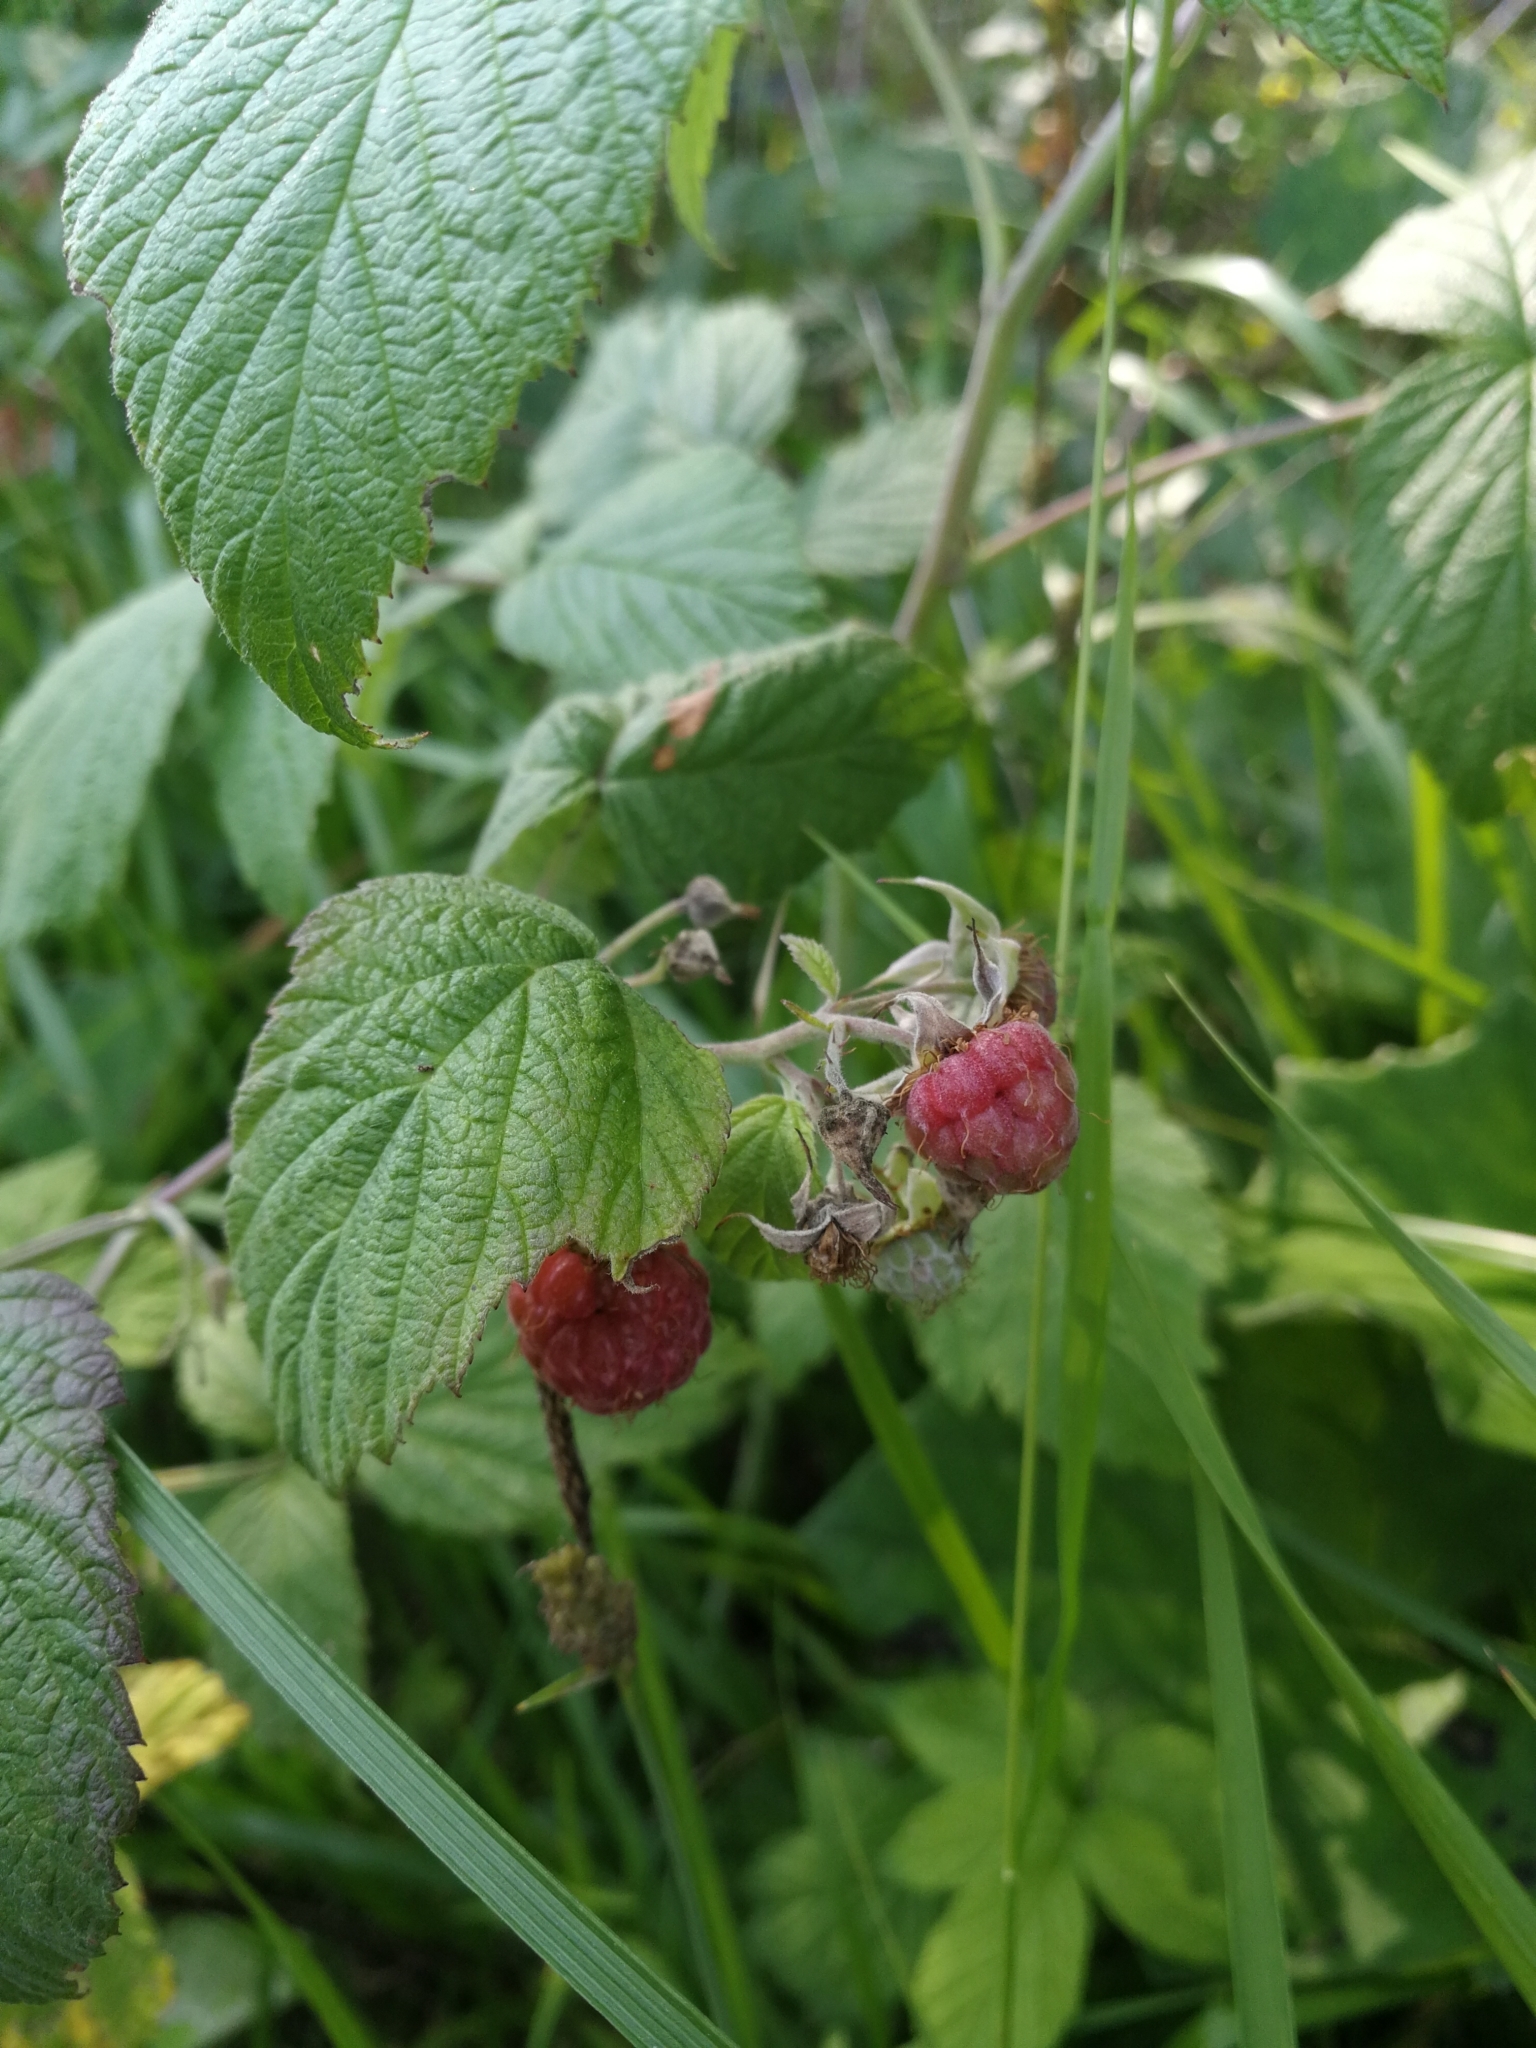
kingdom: Plantae
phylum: Tracheophyta
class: Magnoliopsida
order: Rosales
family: Rosaceae
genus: Rubus
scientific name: Rubus idaeus
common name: Raspberry
